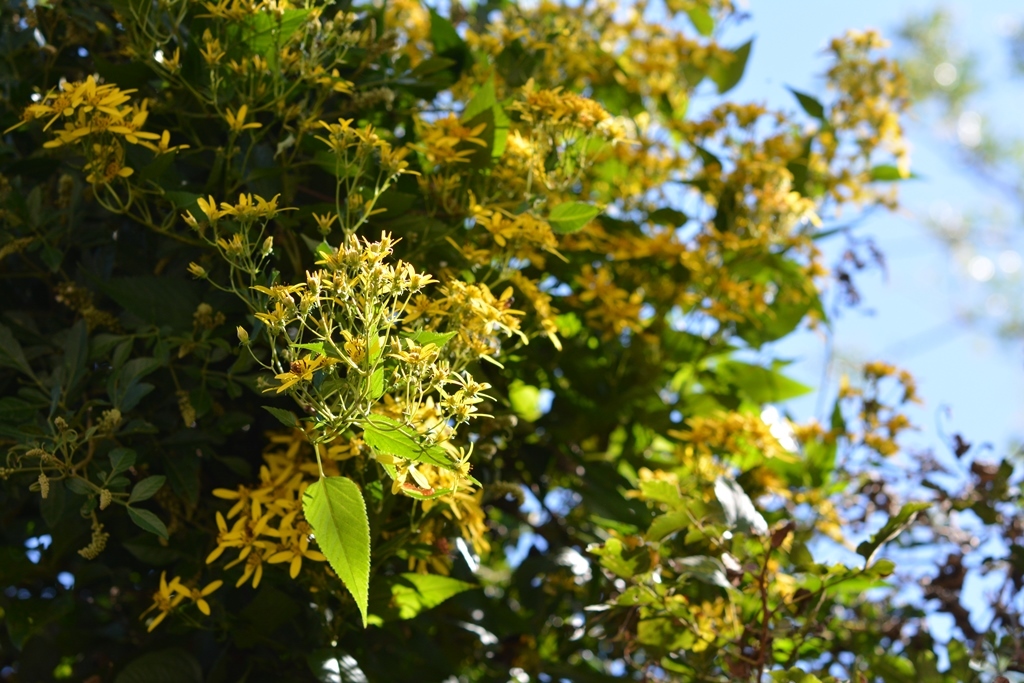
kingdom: Plantae
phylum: Tracheophyta
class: Magnoliopsida
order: Asterales
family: Asteraceae
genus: Bidens
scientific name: Bidens reptans
